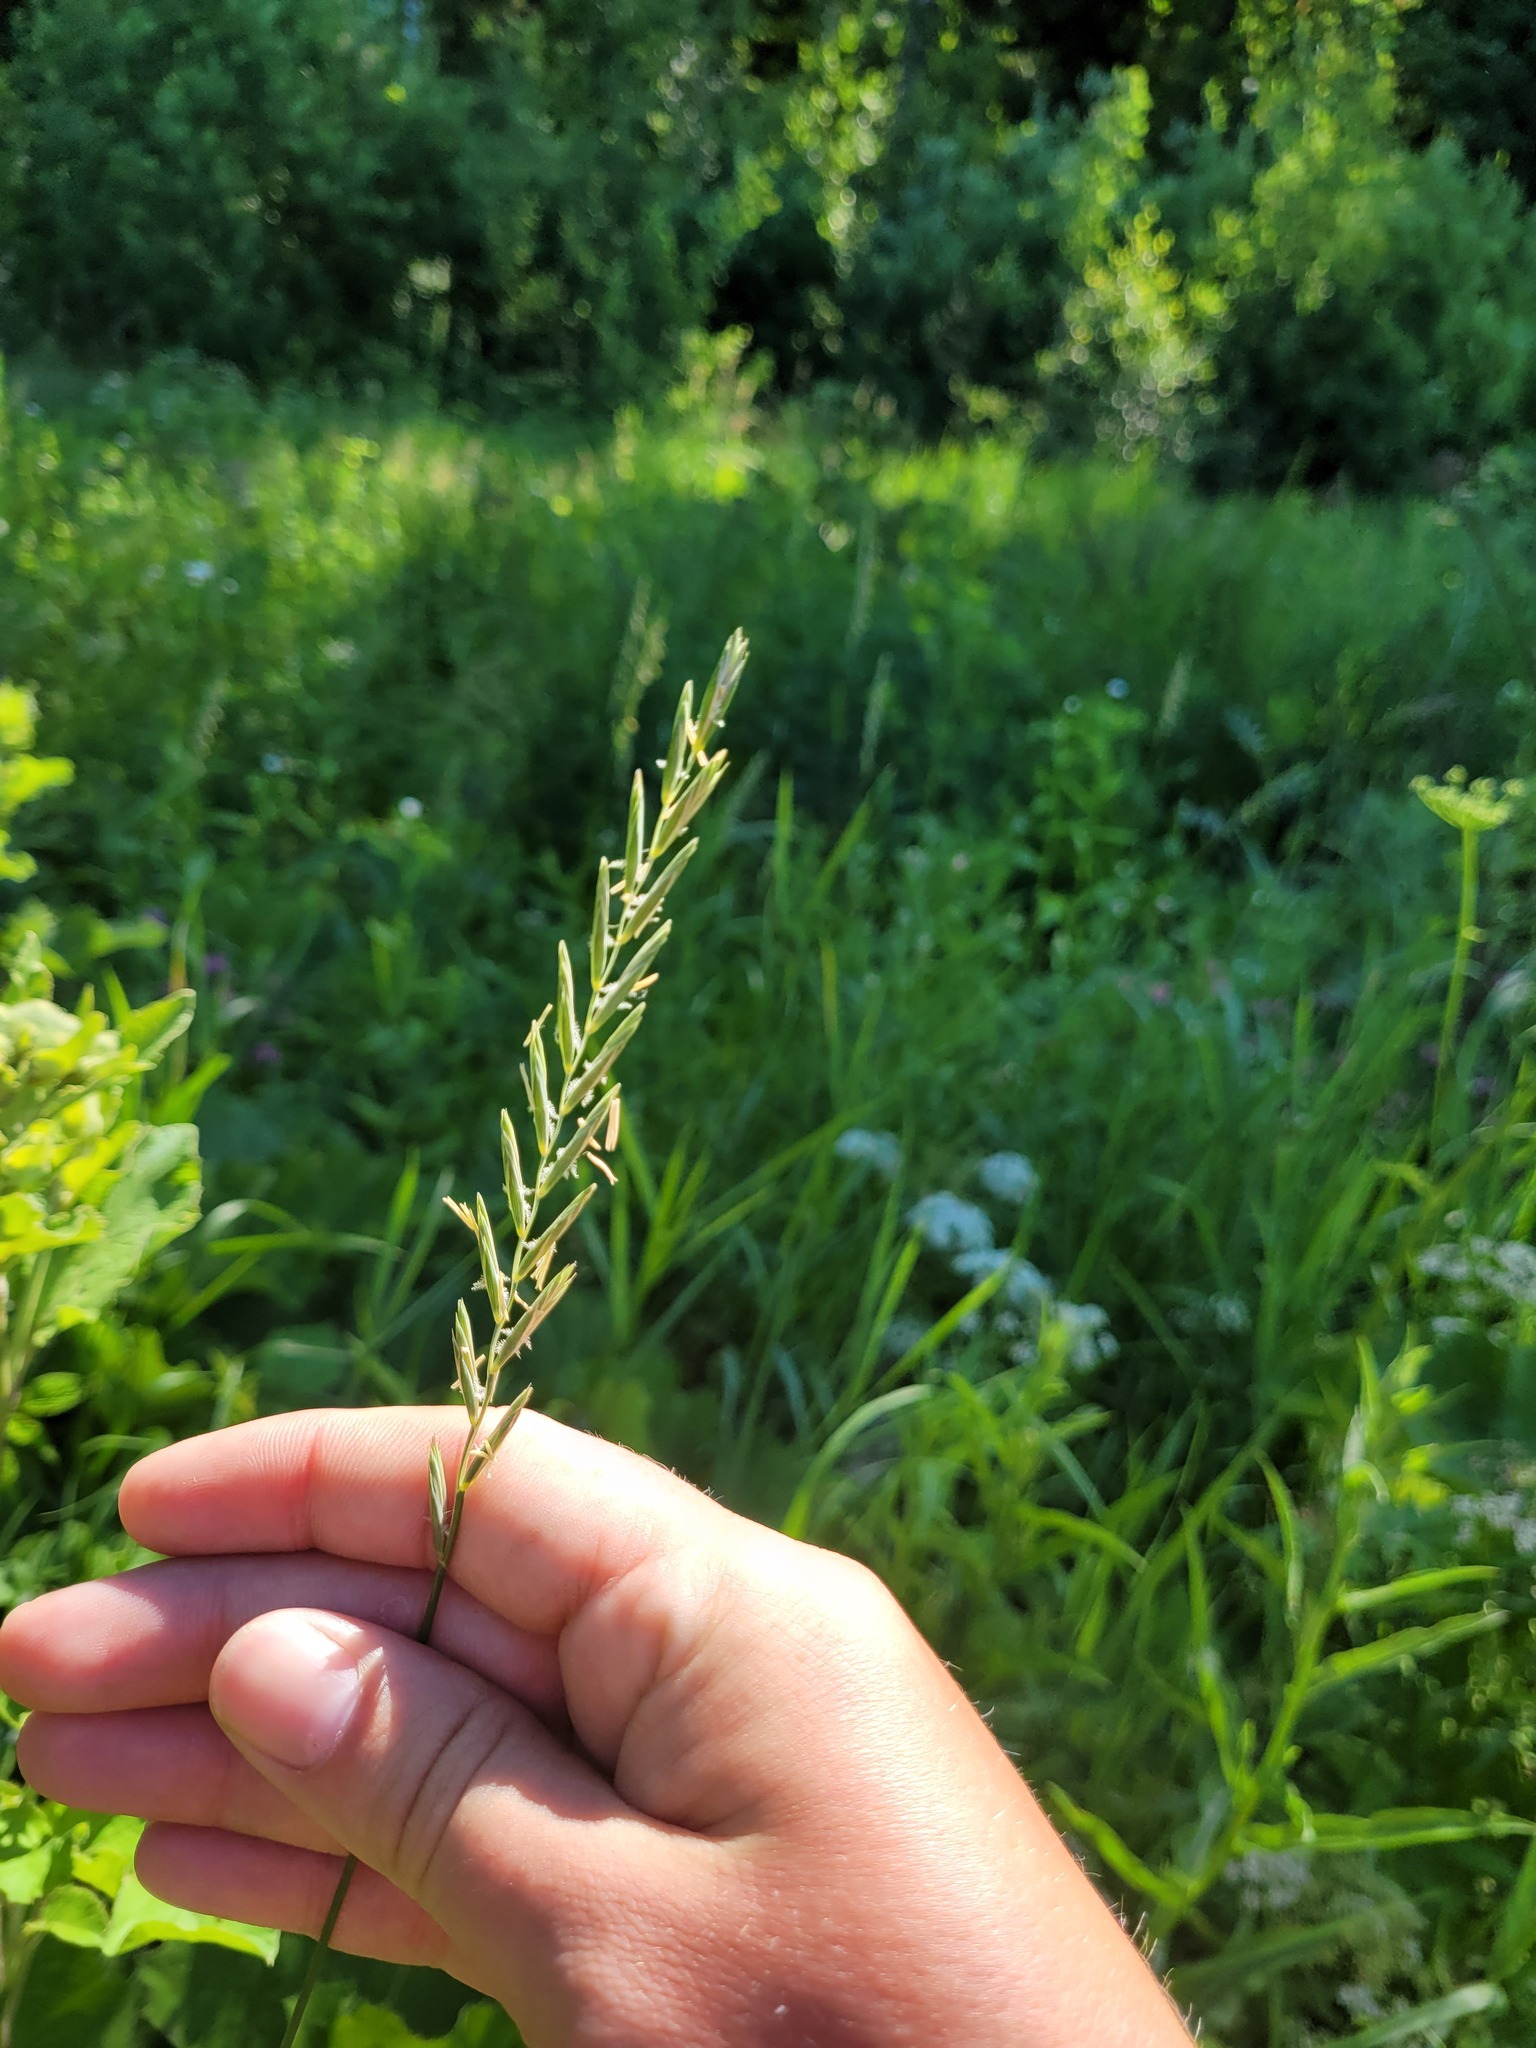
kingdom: Plantae
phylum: Tracheophyta
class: Liliopsida
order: Poales
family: Poaceae
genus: Elymus
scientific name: Elymus repens
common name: Quackgrass
